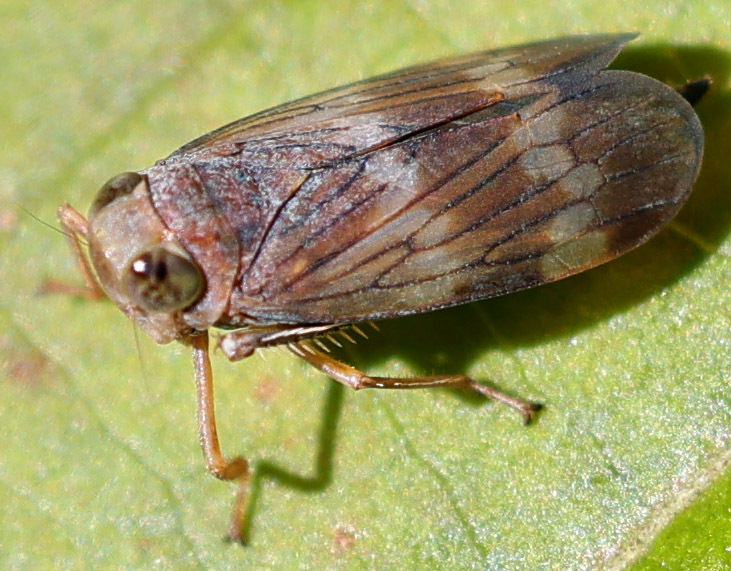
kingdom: Animalia
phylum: Arthropoda
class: Insecta
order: Hemiptera
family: Cicadellidae
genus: Jikradia
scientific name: Jikradia olitoria
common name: Coppery leafhopper
